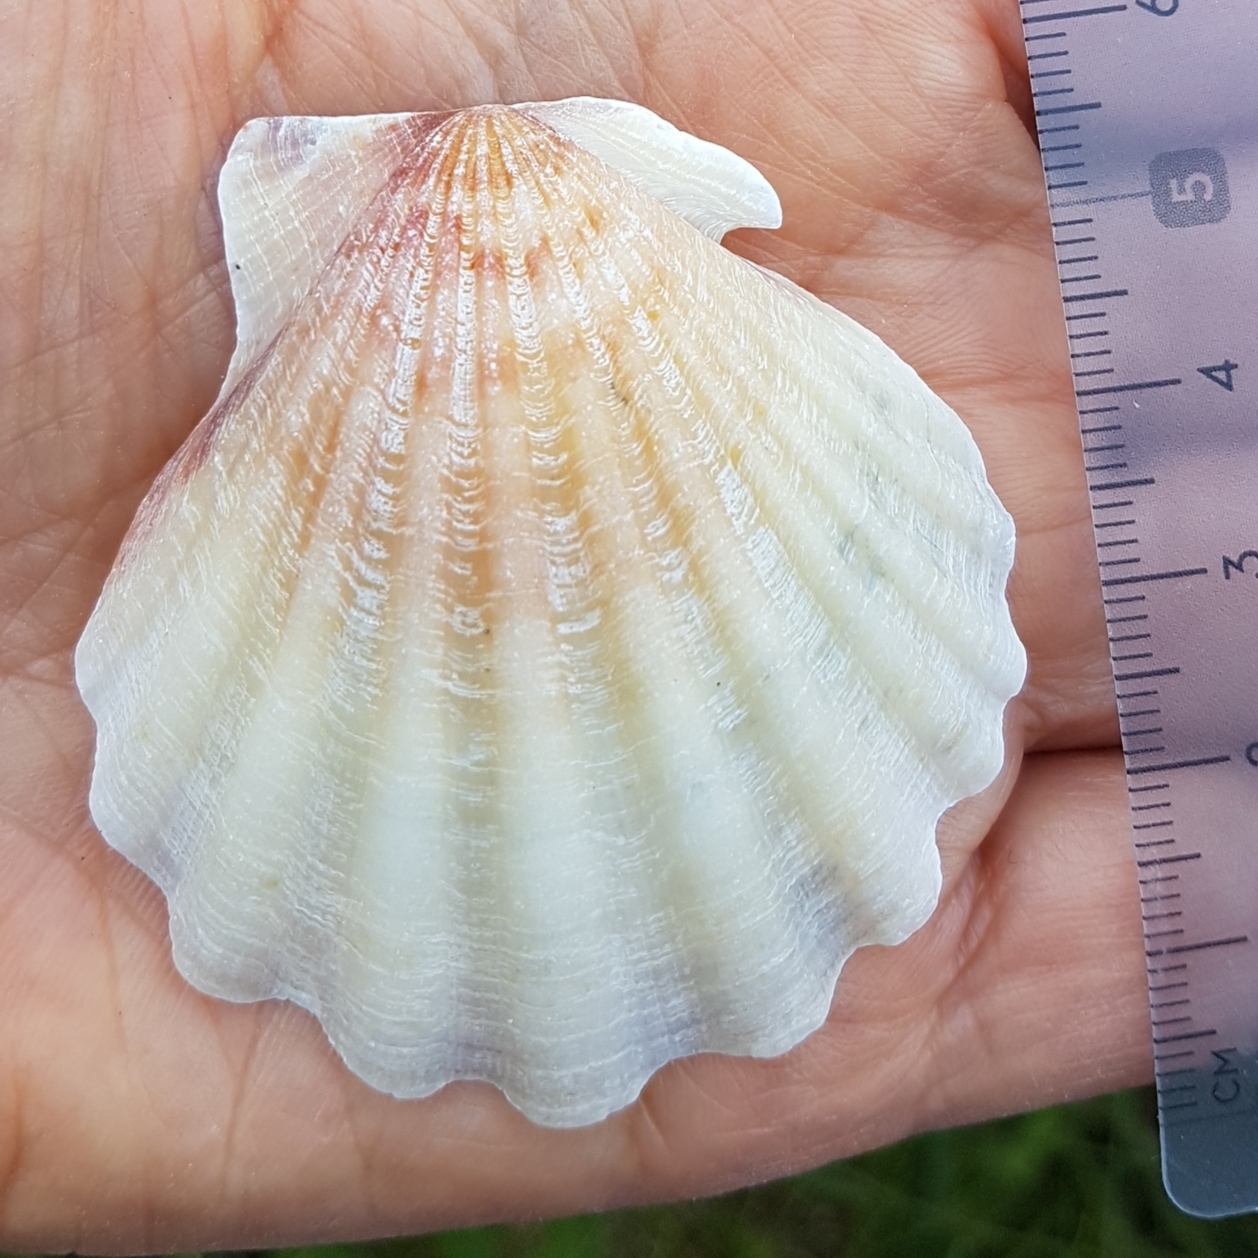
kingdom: Animalia
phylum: Mollusca
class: Bivalvia
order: Pectinida
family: Pectinidae
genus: Flexopecten
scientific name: Flexopecten glaber
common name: Smooth scallop
